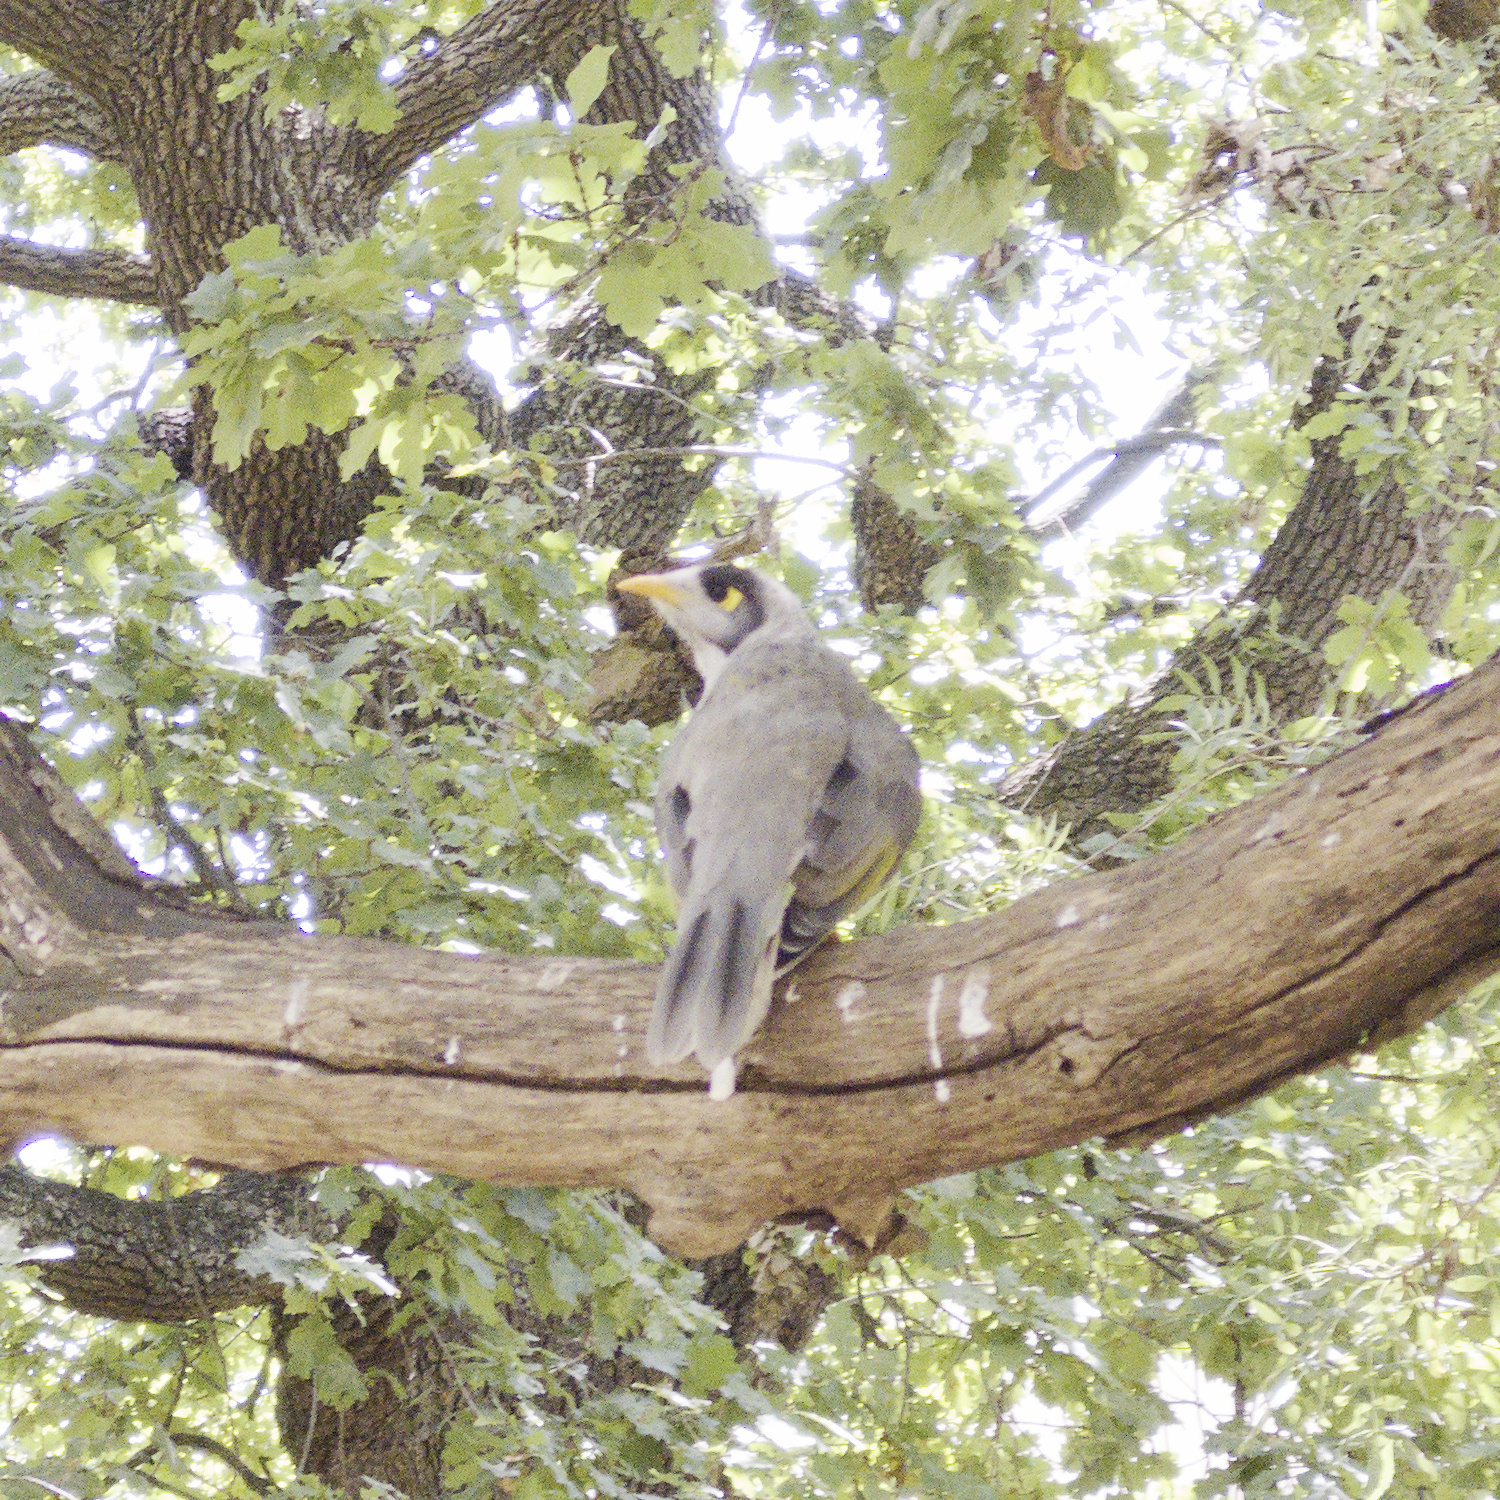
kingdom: Animalia
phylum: Chordata
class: Aves
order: Passeriformes
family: Meliphagidae
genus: Manorina
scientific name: Manorina melanocephala
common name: Noisy miner
